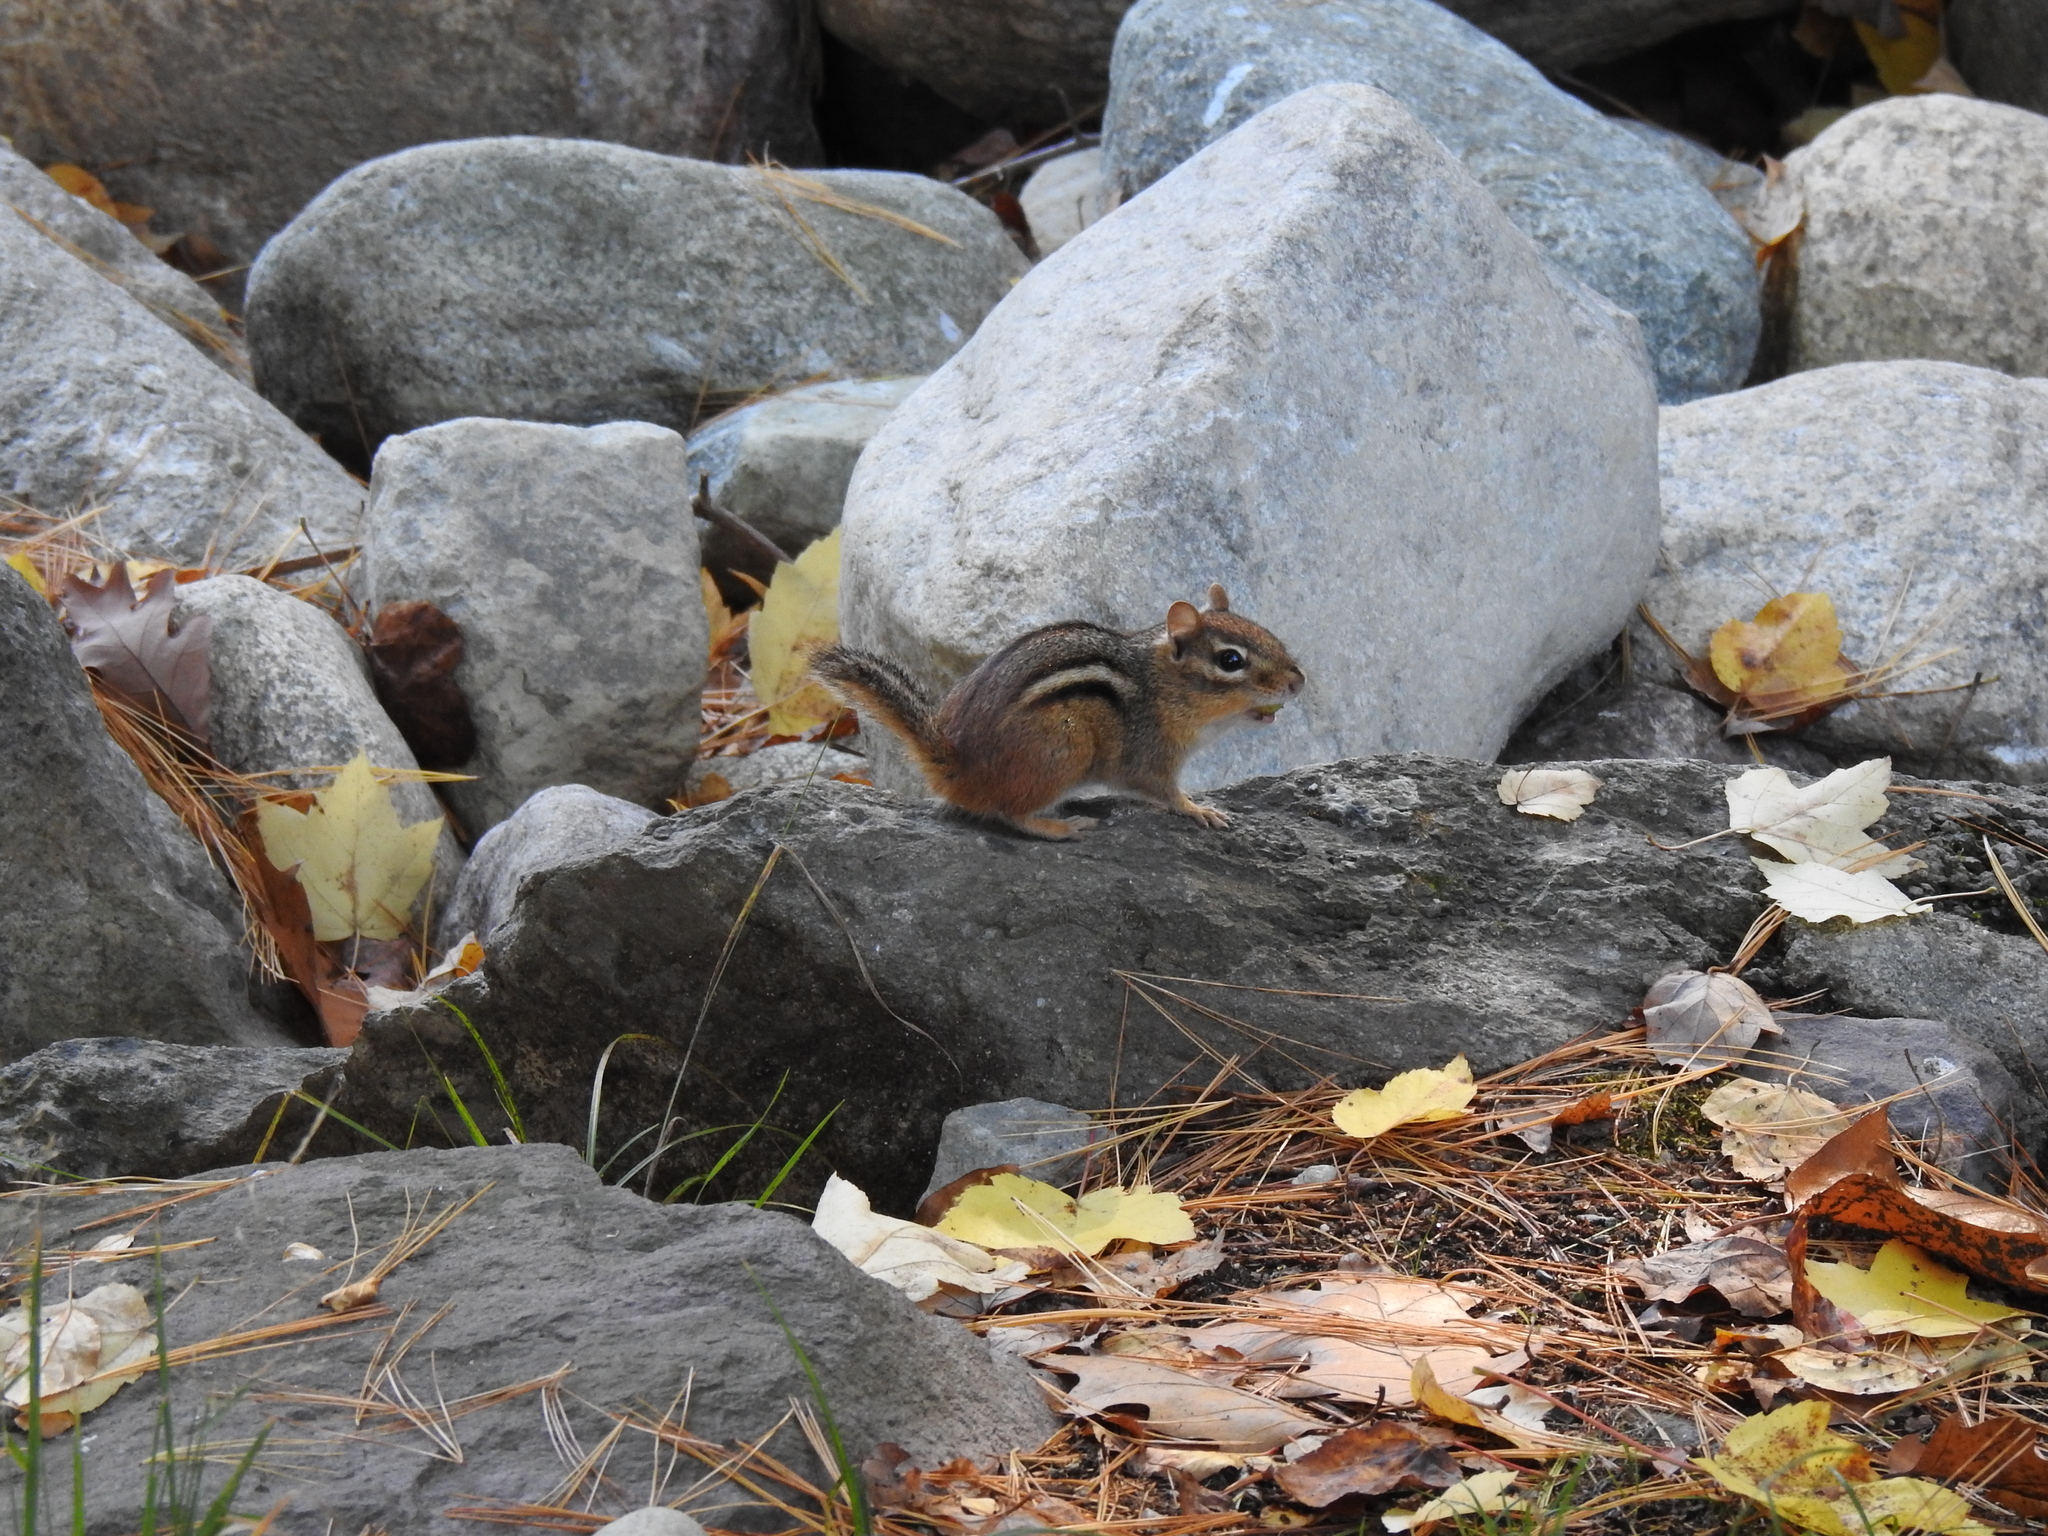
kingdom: Animalia
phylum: Chordata
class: Mammalia
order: Rodentia
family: Sciuridae
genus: Tamias
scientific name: Tamias striatus
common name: Eastern chipmunk
